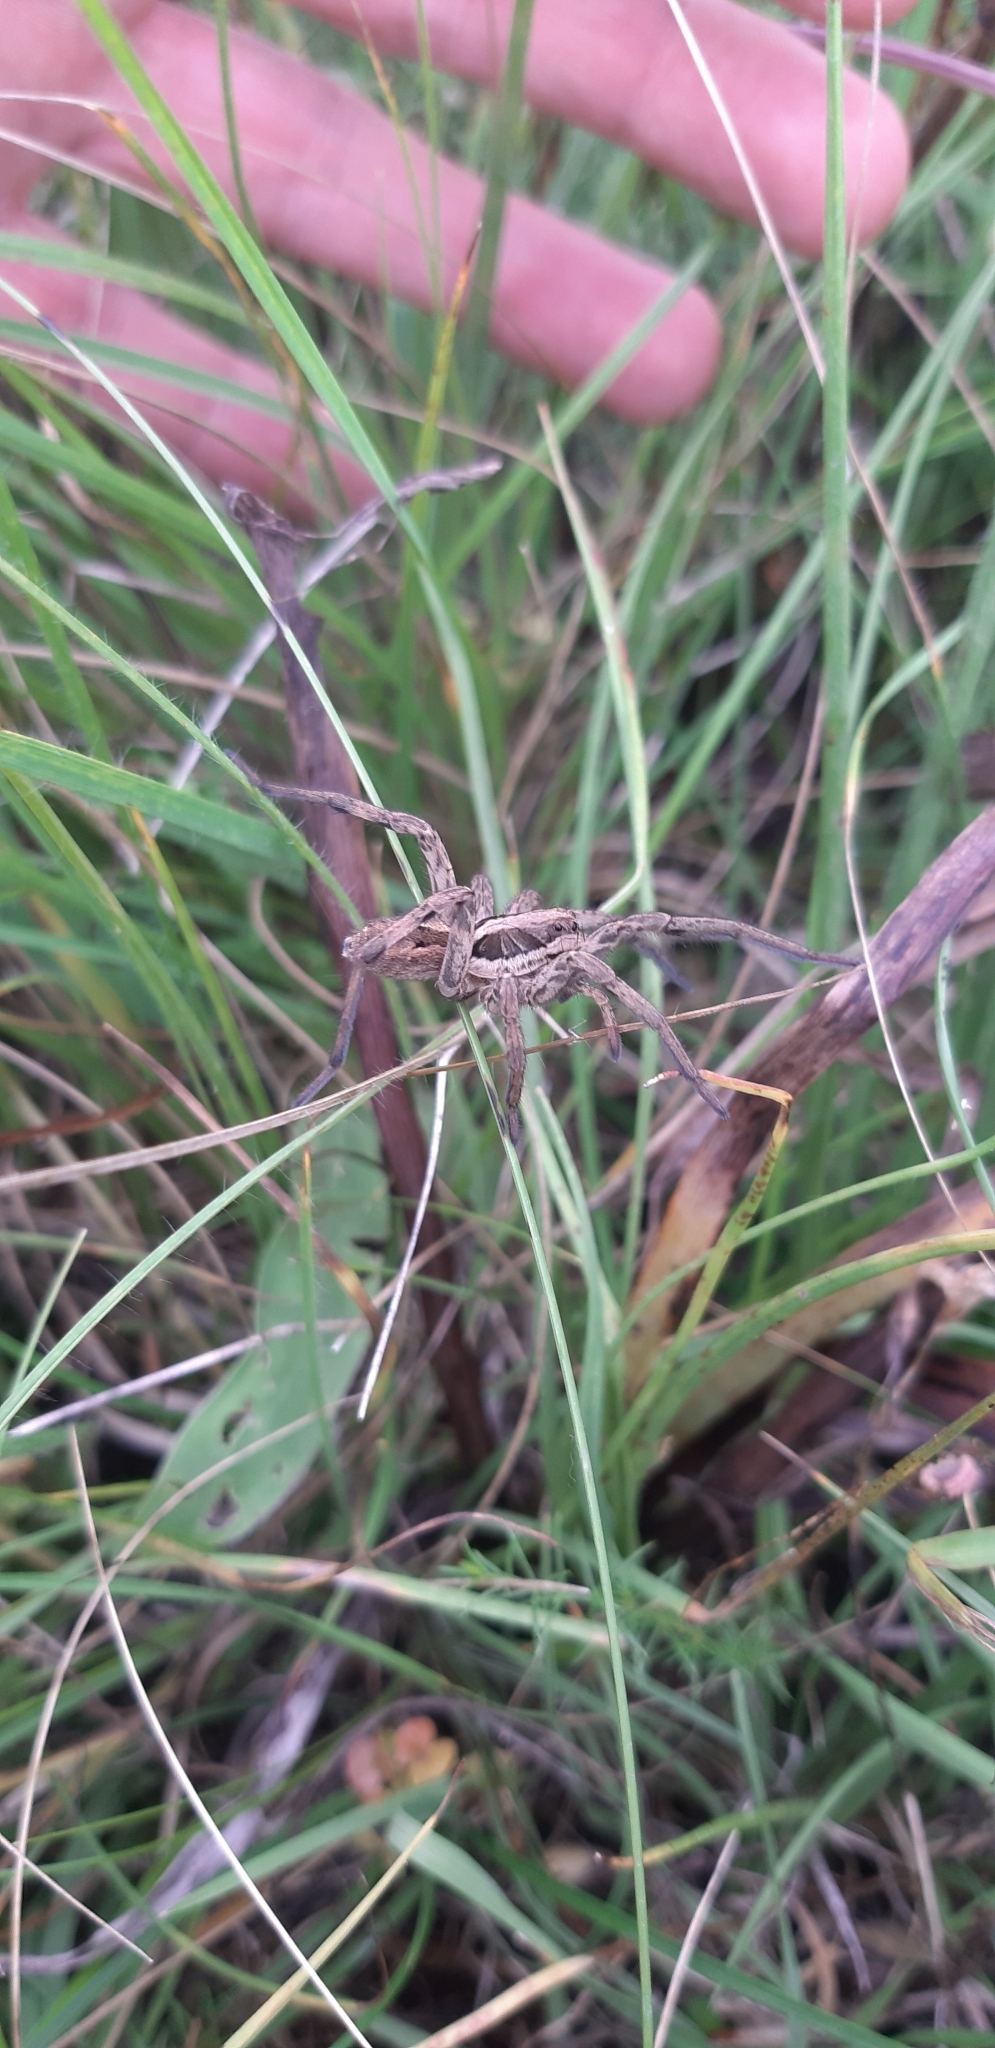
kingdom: Animalia
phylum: Arthropoda
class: Arachnida
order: Araneae
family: Lycosidae
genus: Hogna
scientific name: Hogna radiata
